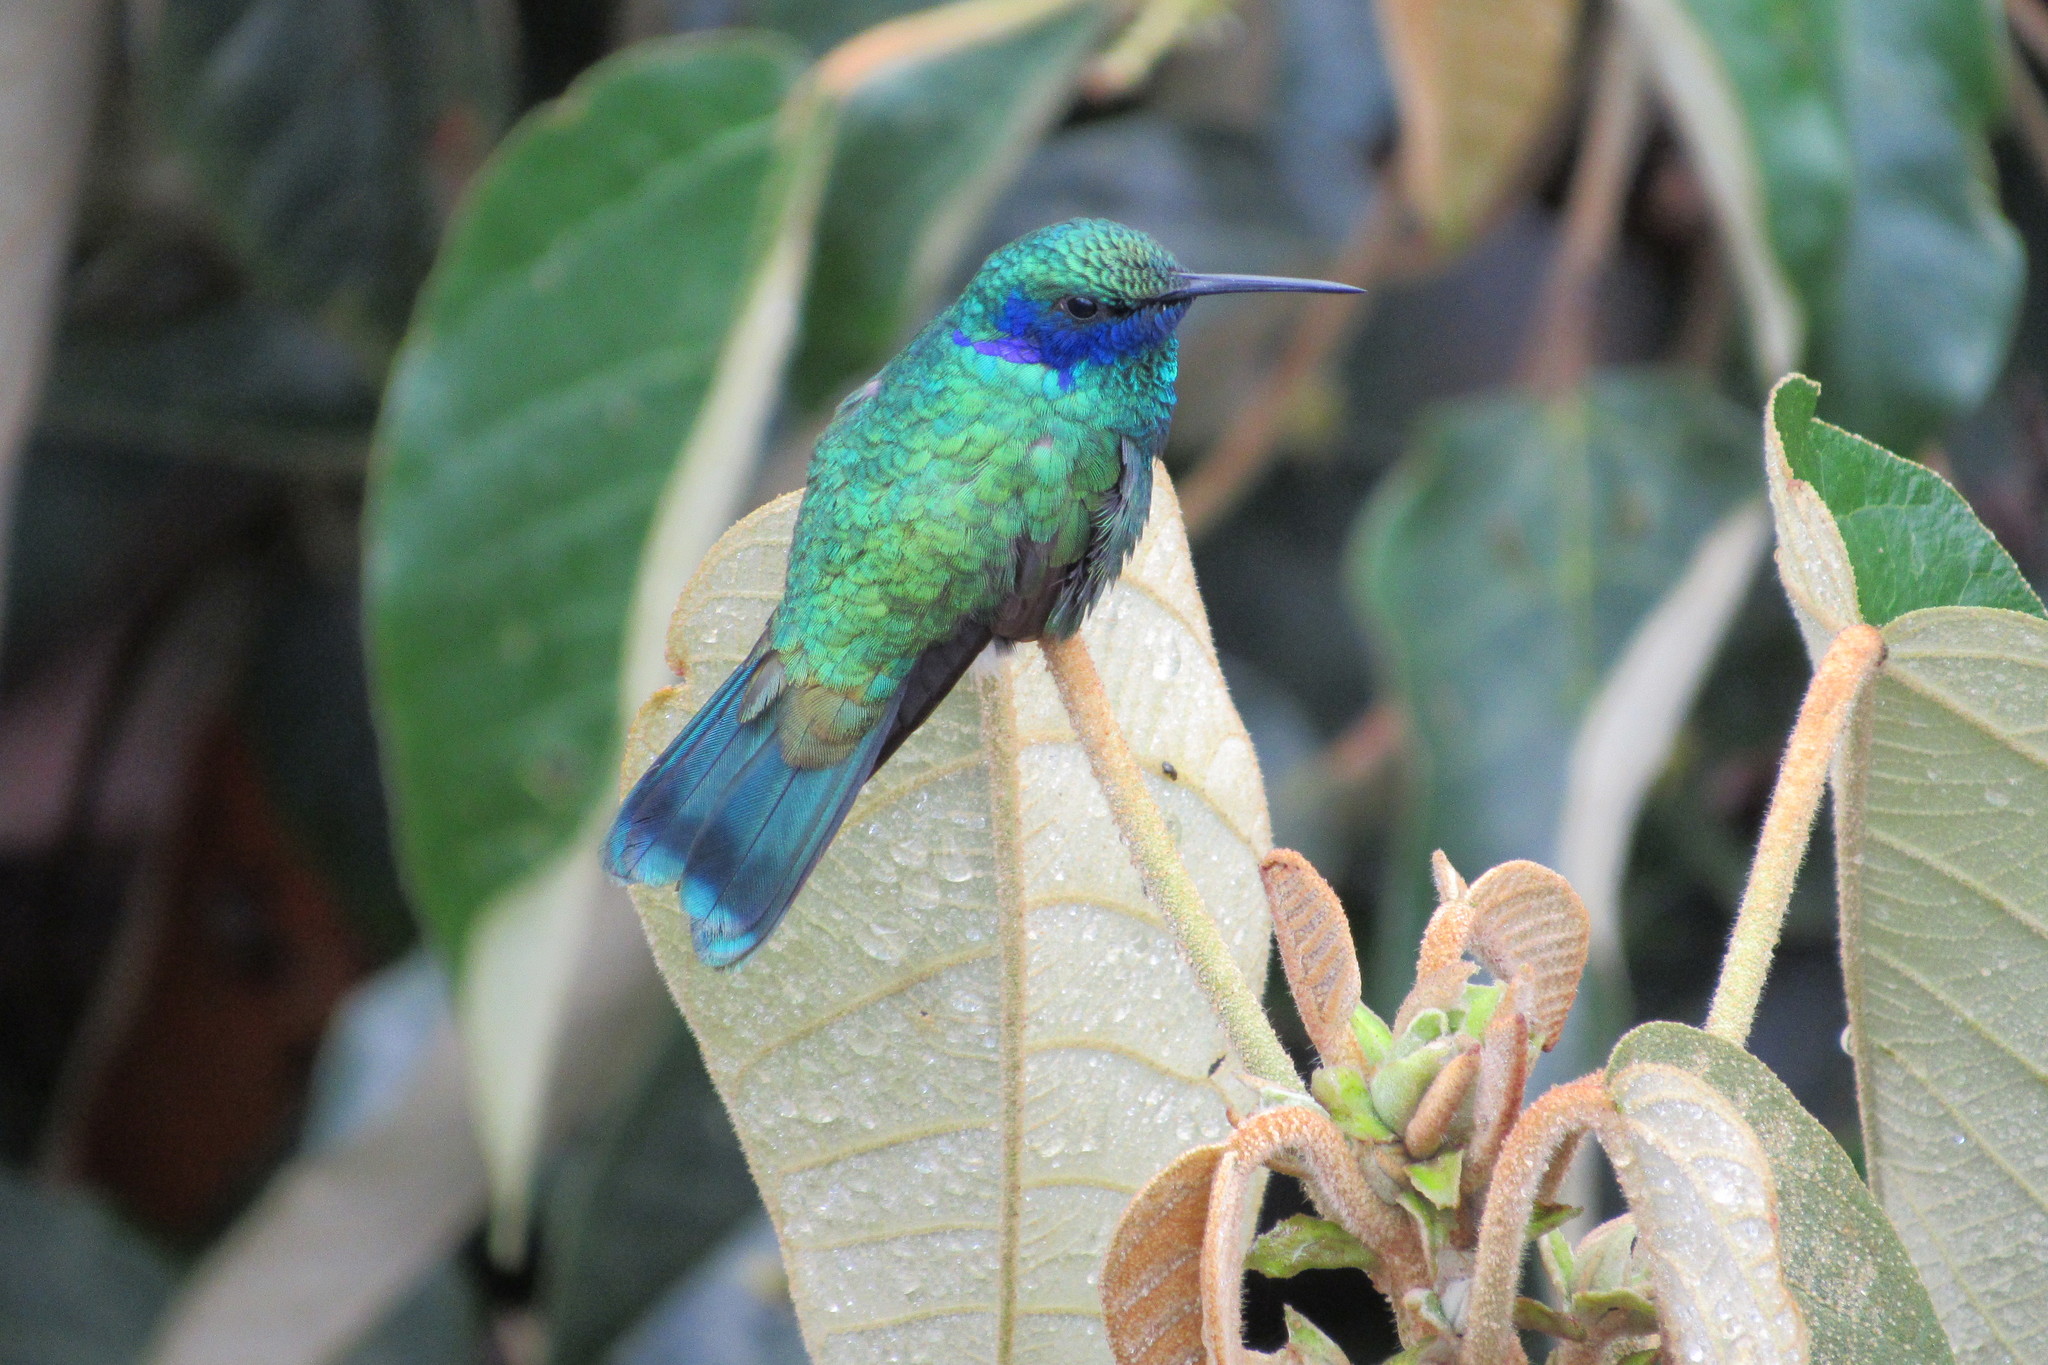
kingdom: Animalia
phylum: Chordata
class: Aves
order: Apodiformes
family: Trochilidae
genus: Colibri
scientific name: Colibri coruscans
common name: Sparkling violetear
